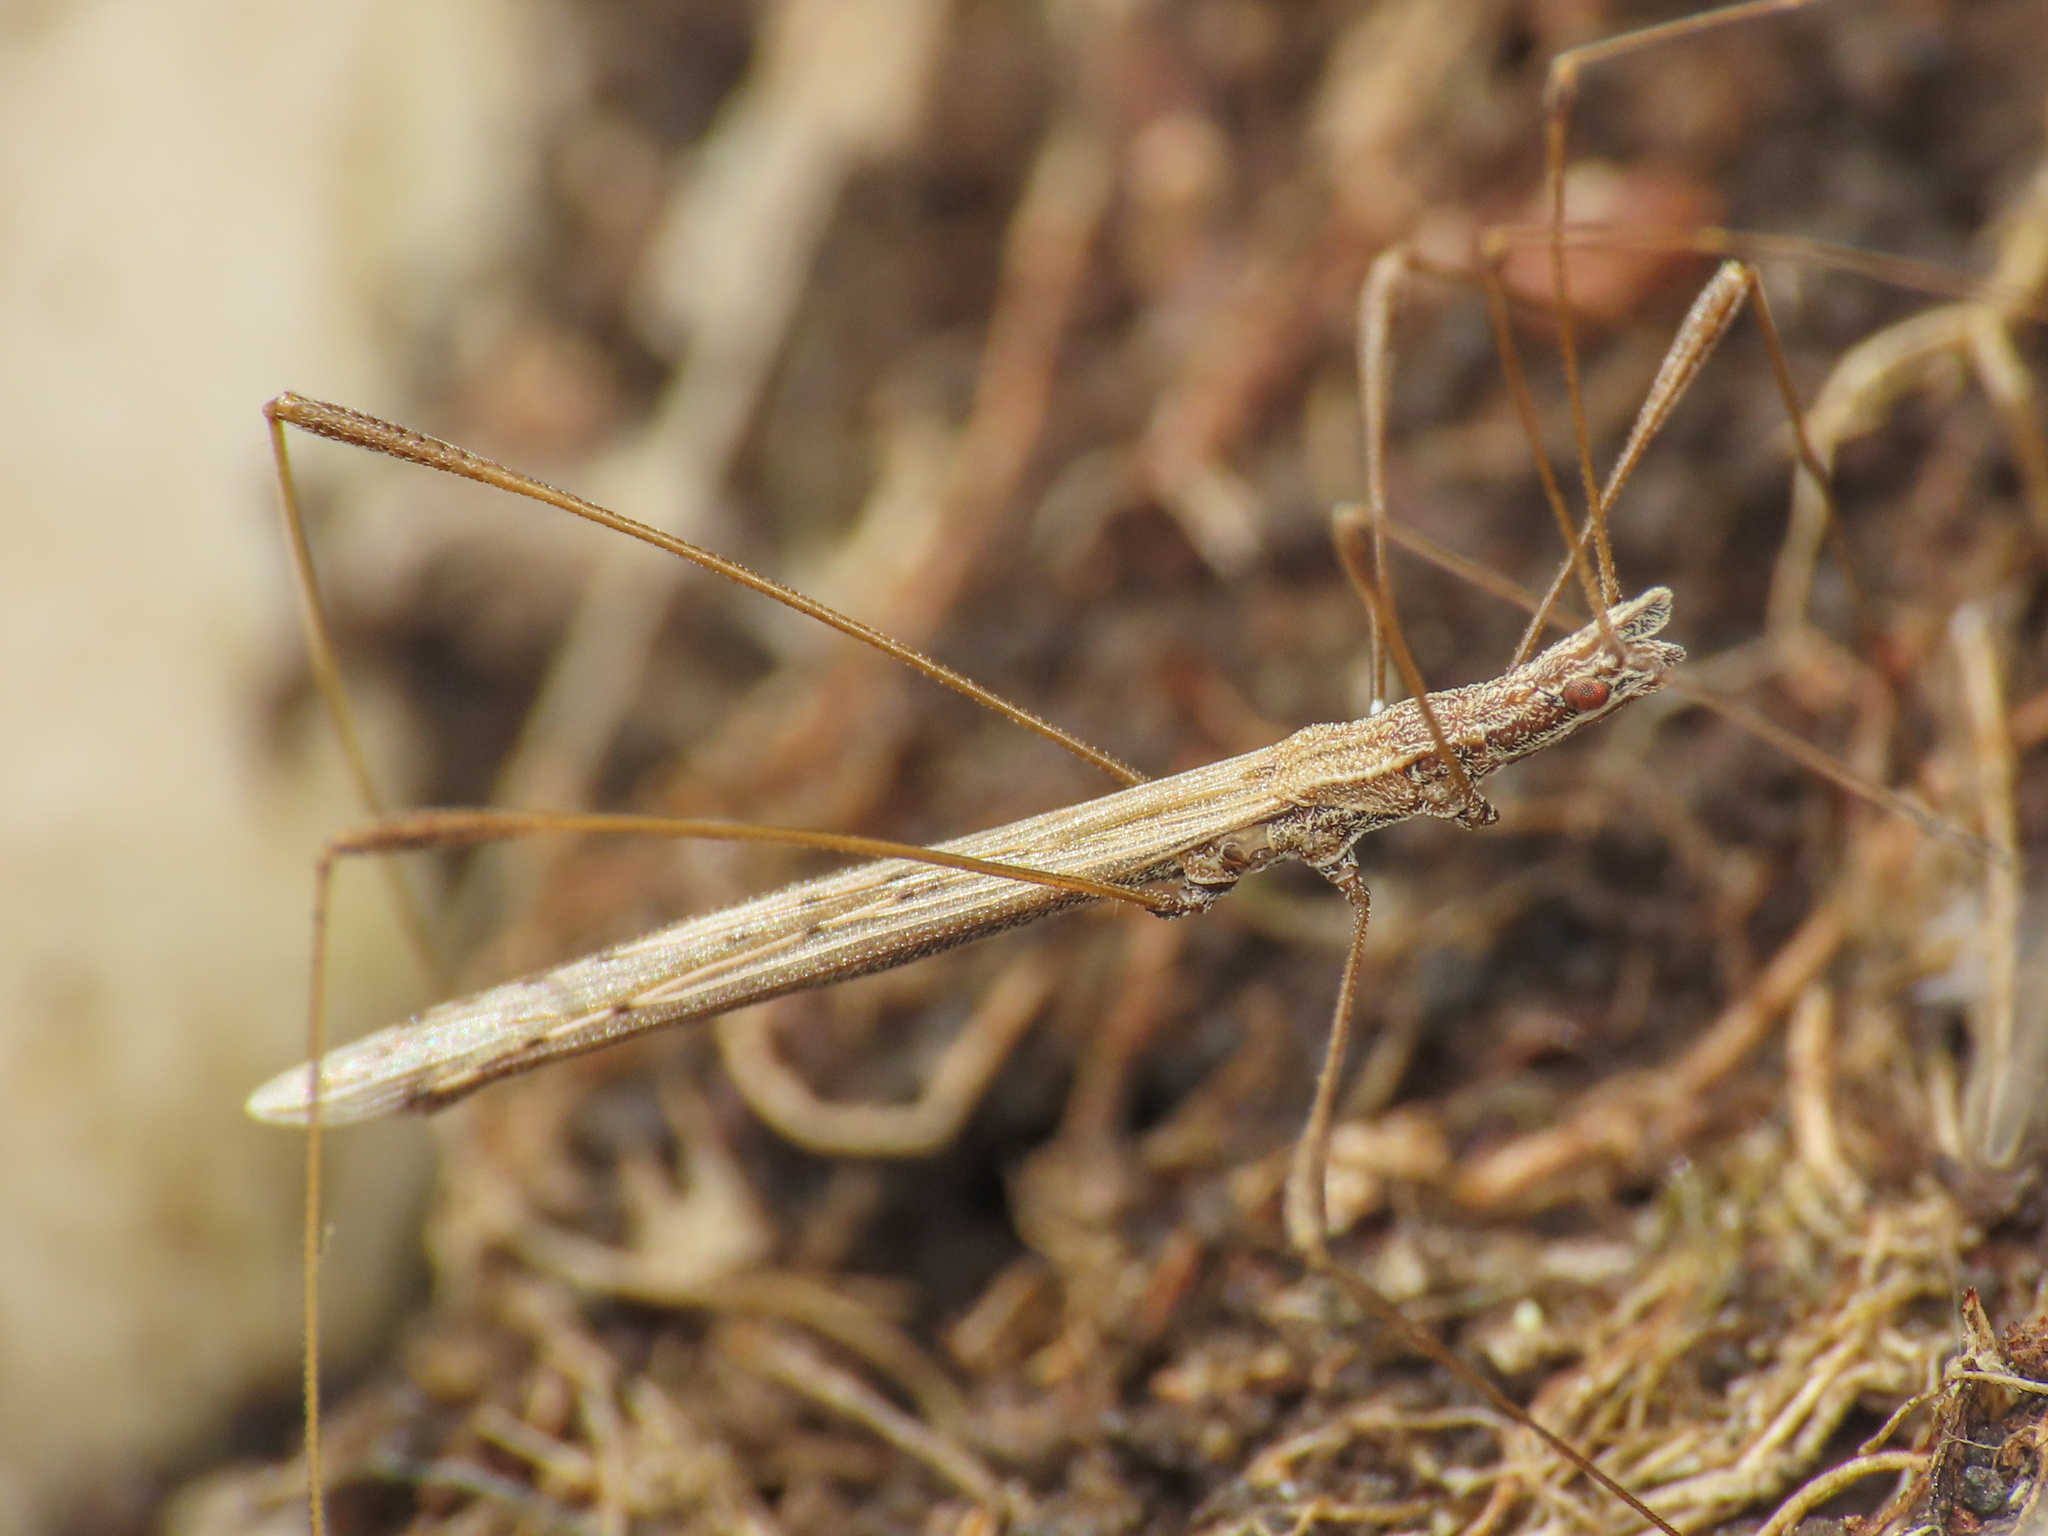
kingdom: Animalia
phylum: Arthropoda
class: Insecta
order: Hemiptera
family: Berytidae
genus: Neides
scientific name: Neides tipularius
